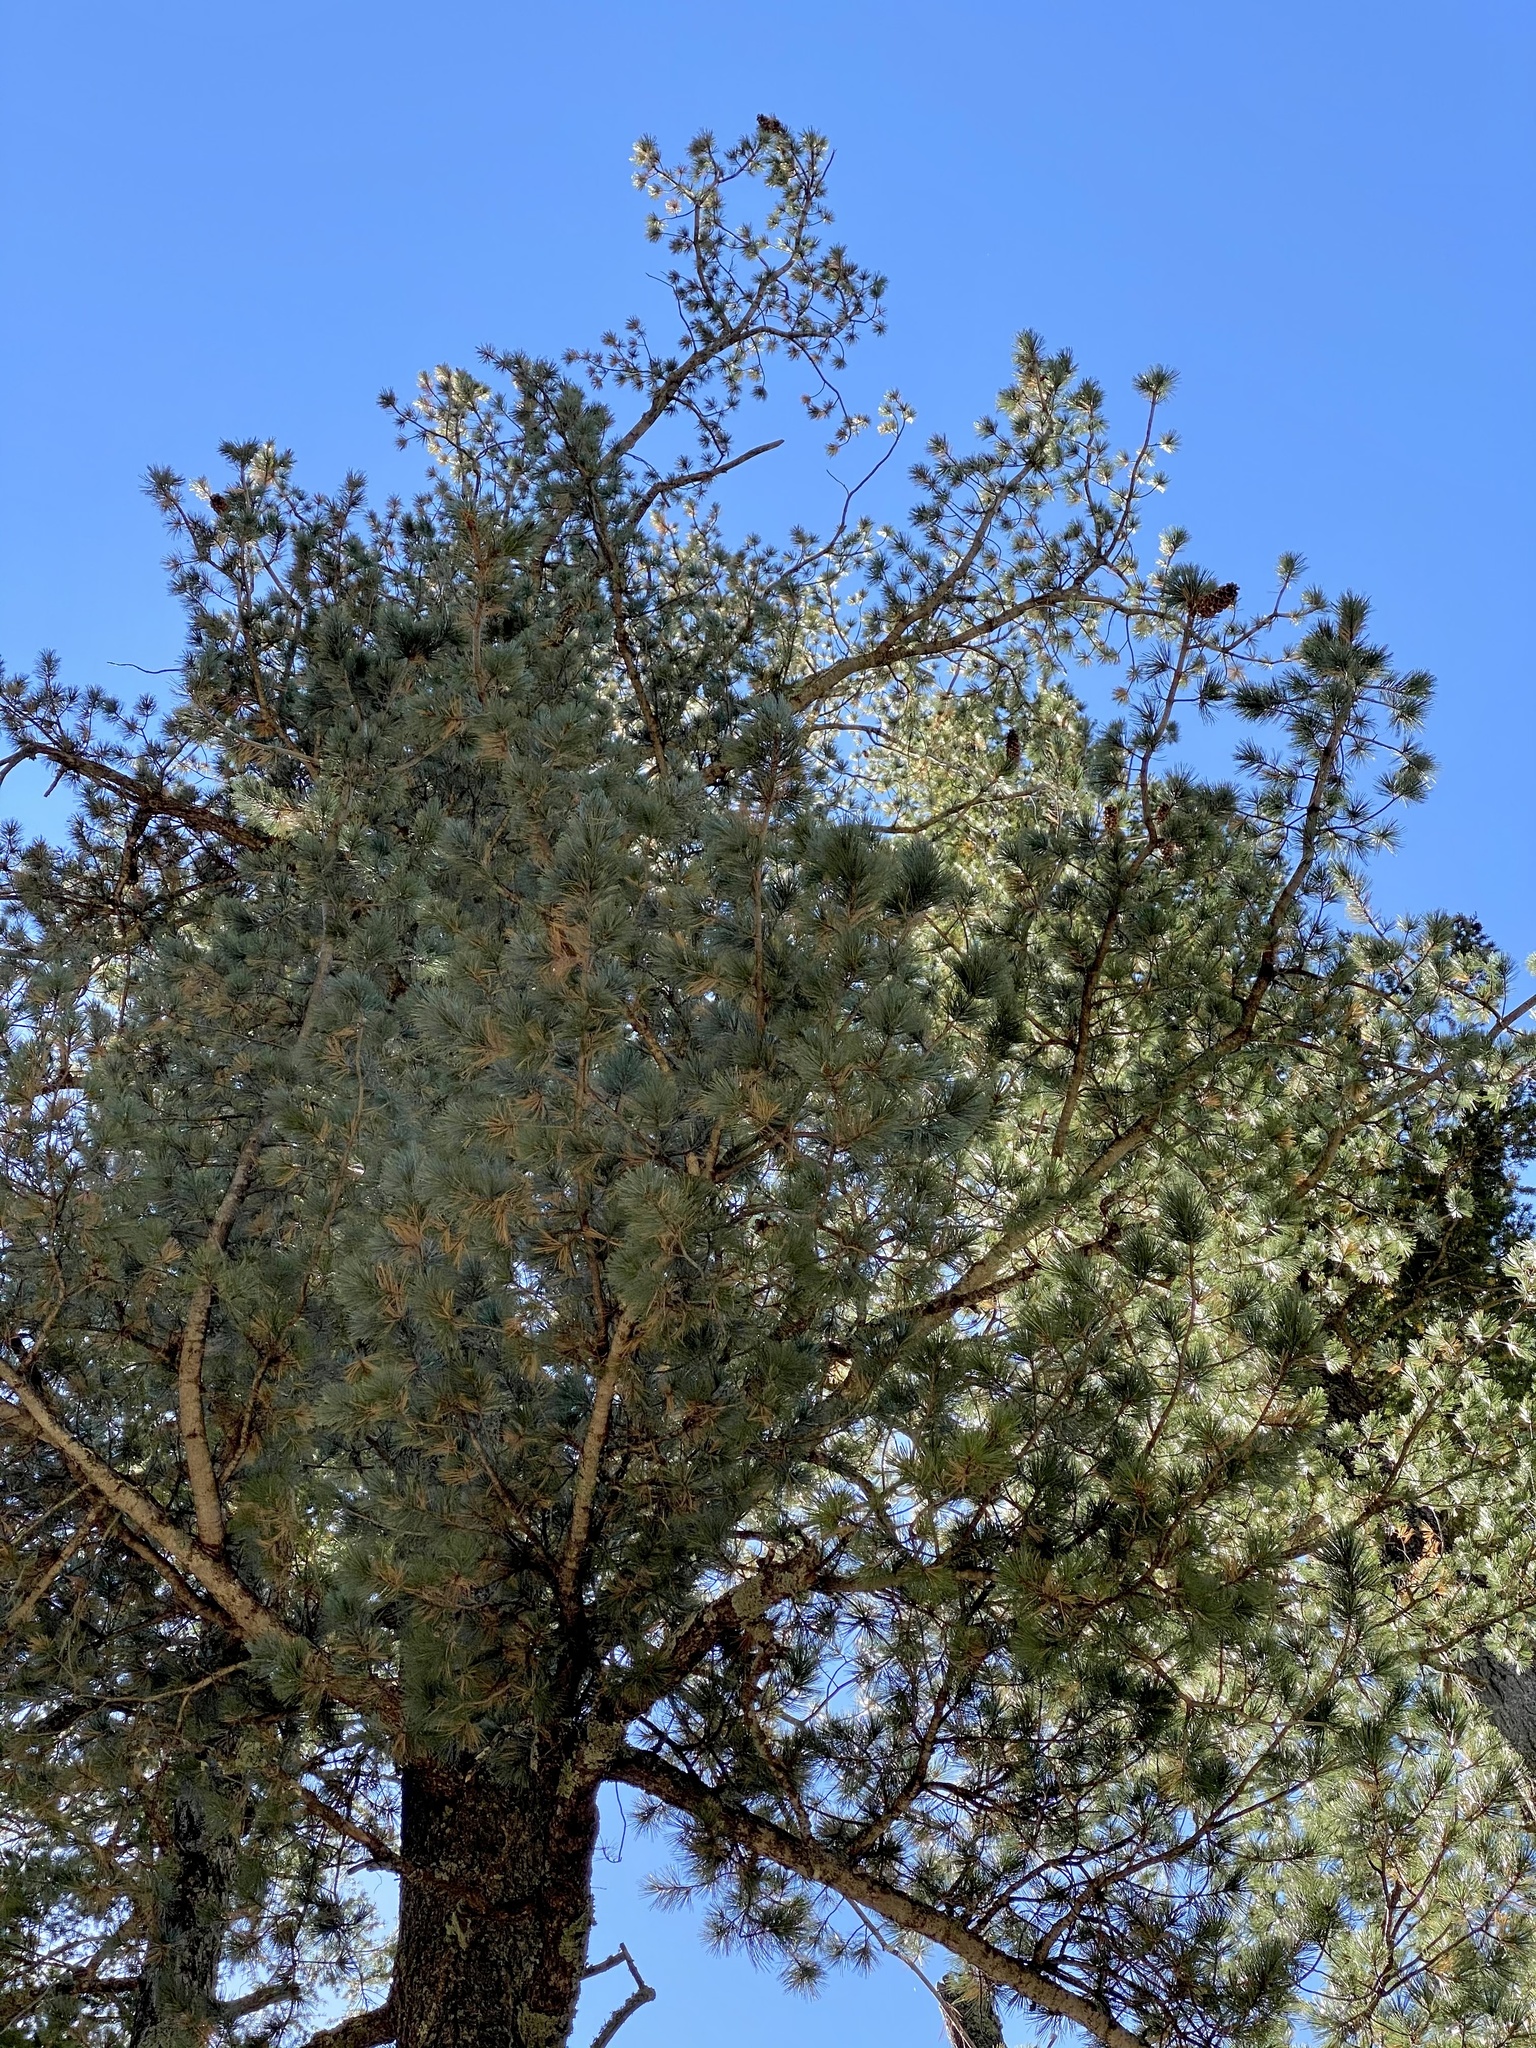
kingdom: Plantae
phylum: Tracheophyta
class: Pinopsida
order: Pinales
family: Pinaceae
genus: Pinus
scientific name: Pinus strobiformis
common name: Southwestern white pine
